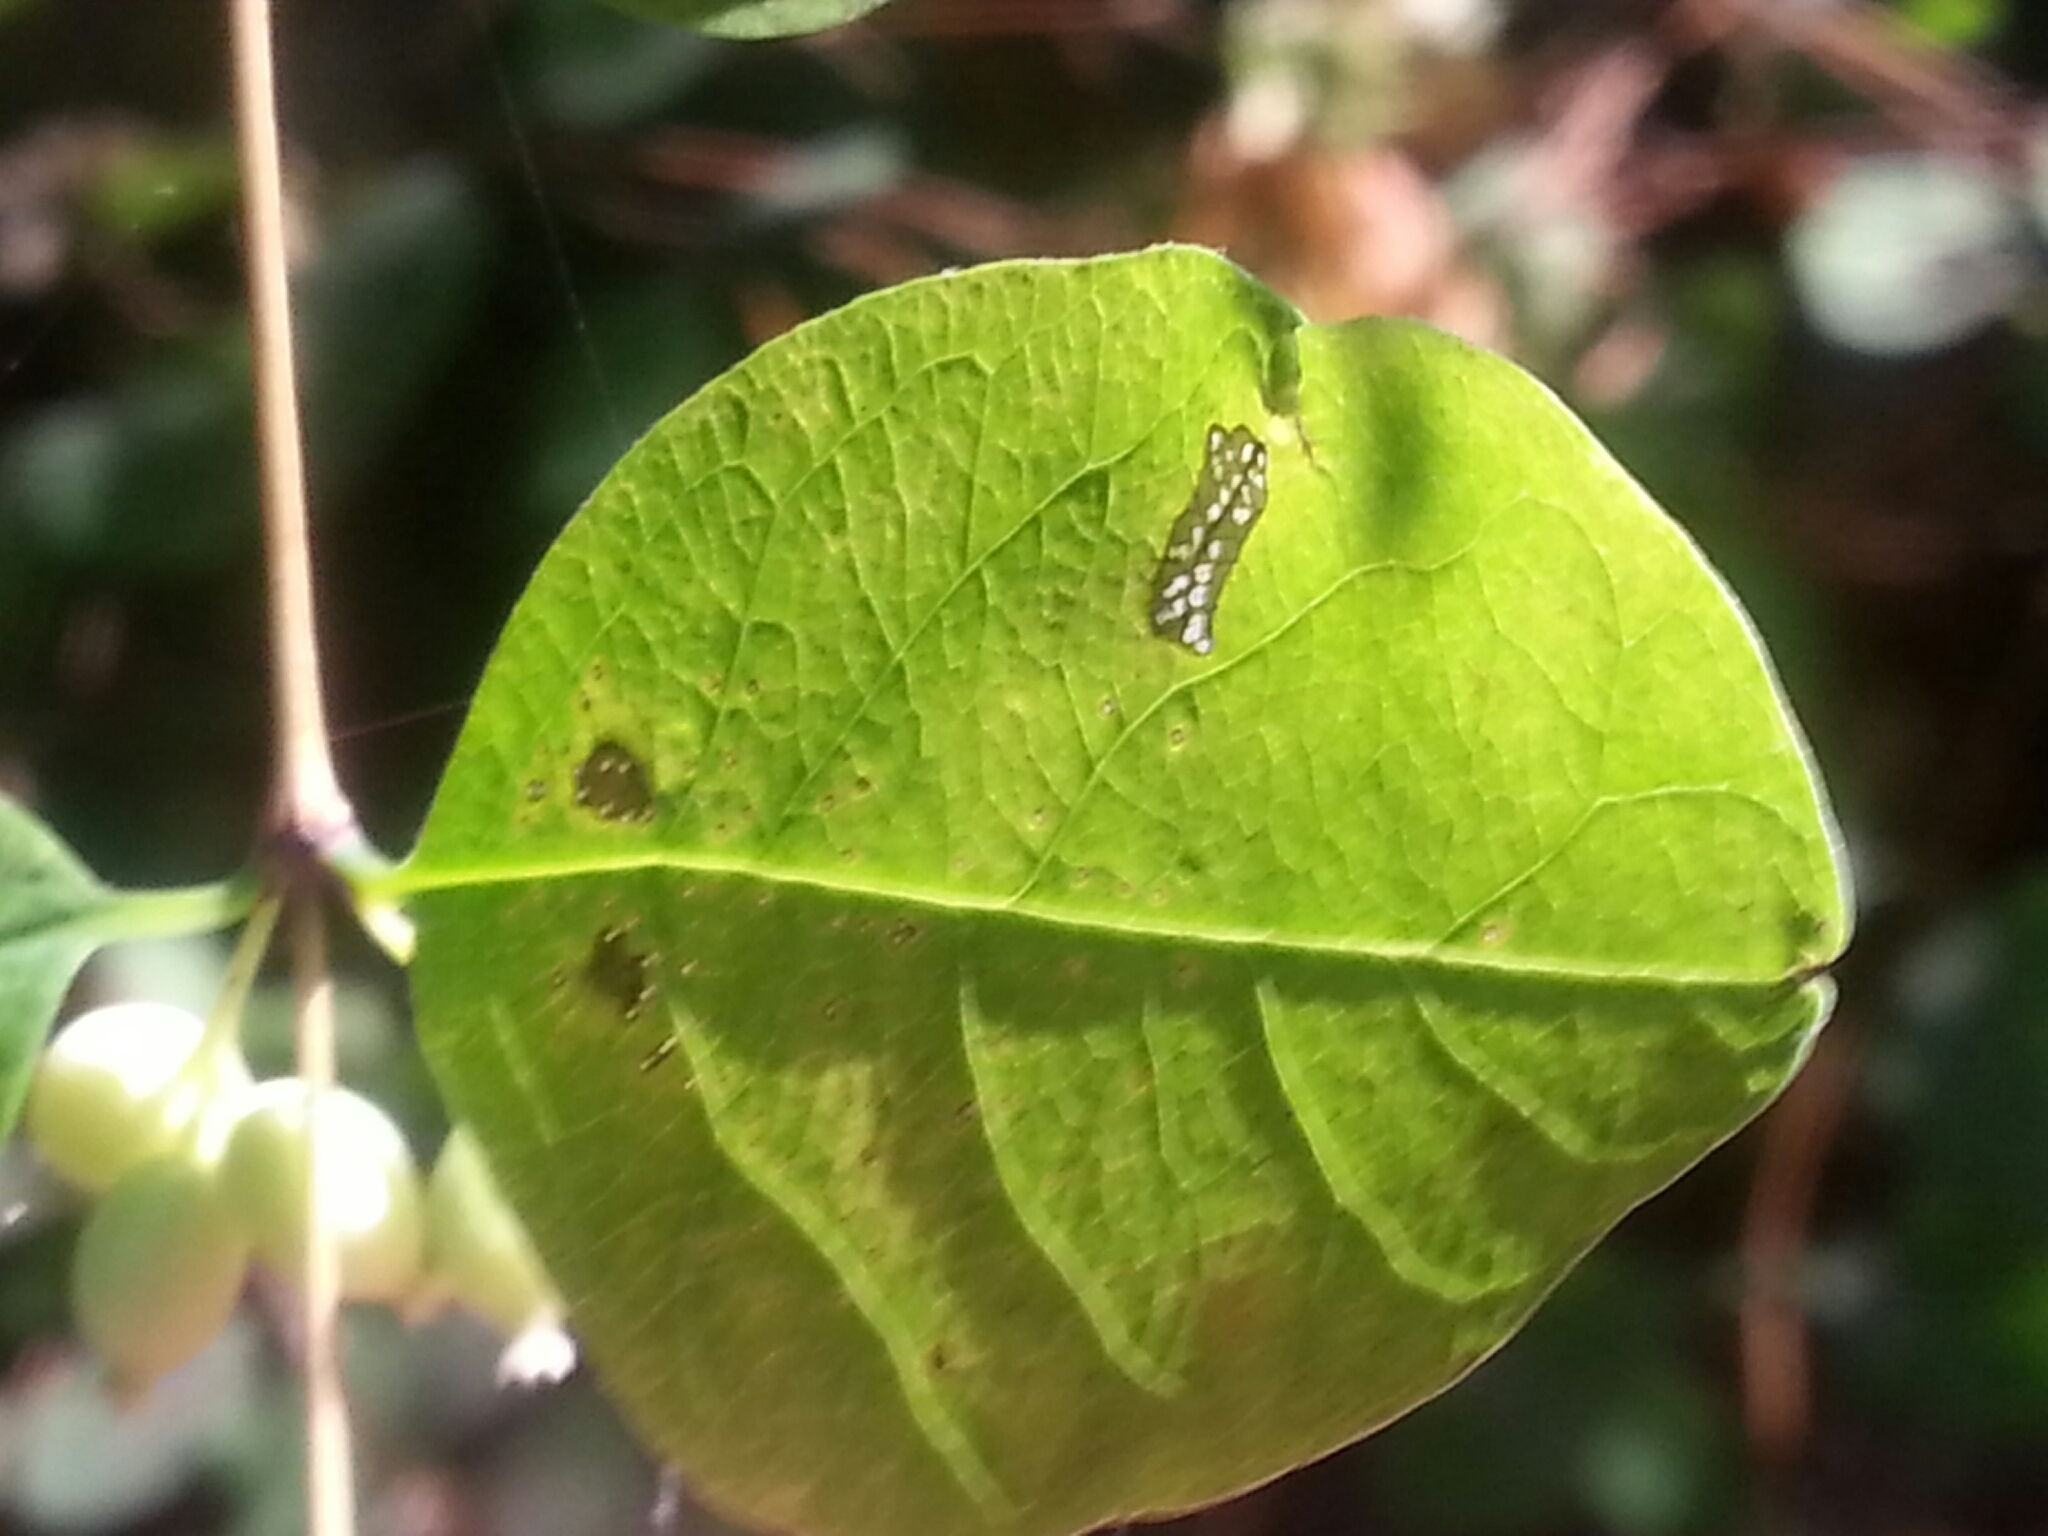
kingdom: Plantae
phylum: Tracheophyta
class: Magnoliopsida
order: Dipsacales
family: Caprifoliaceae
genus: Symphoricarpos
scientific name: Symphoricarpos albus
